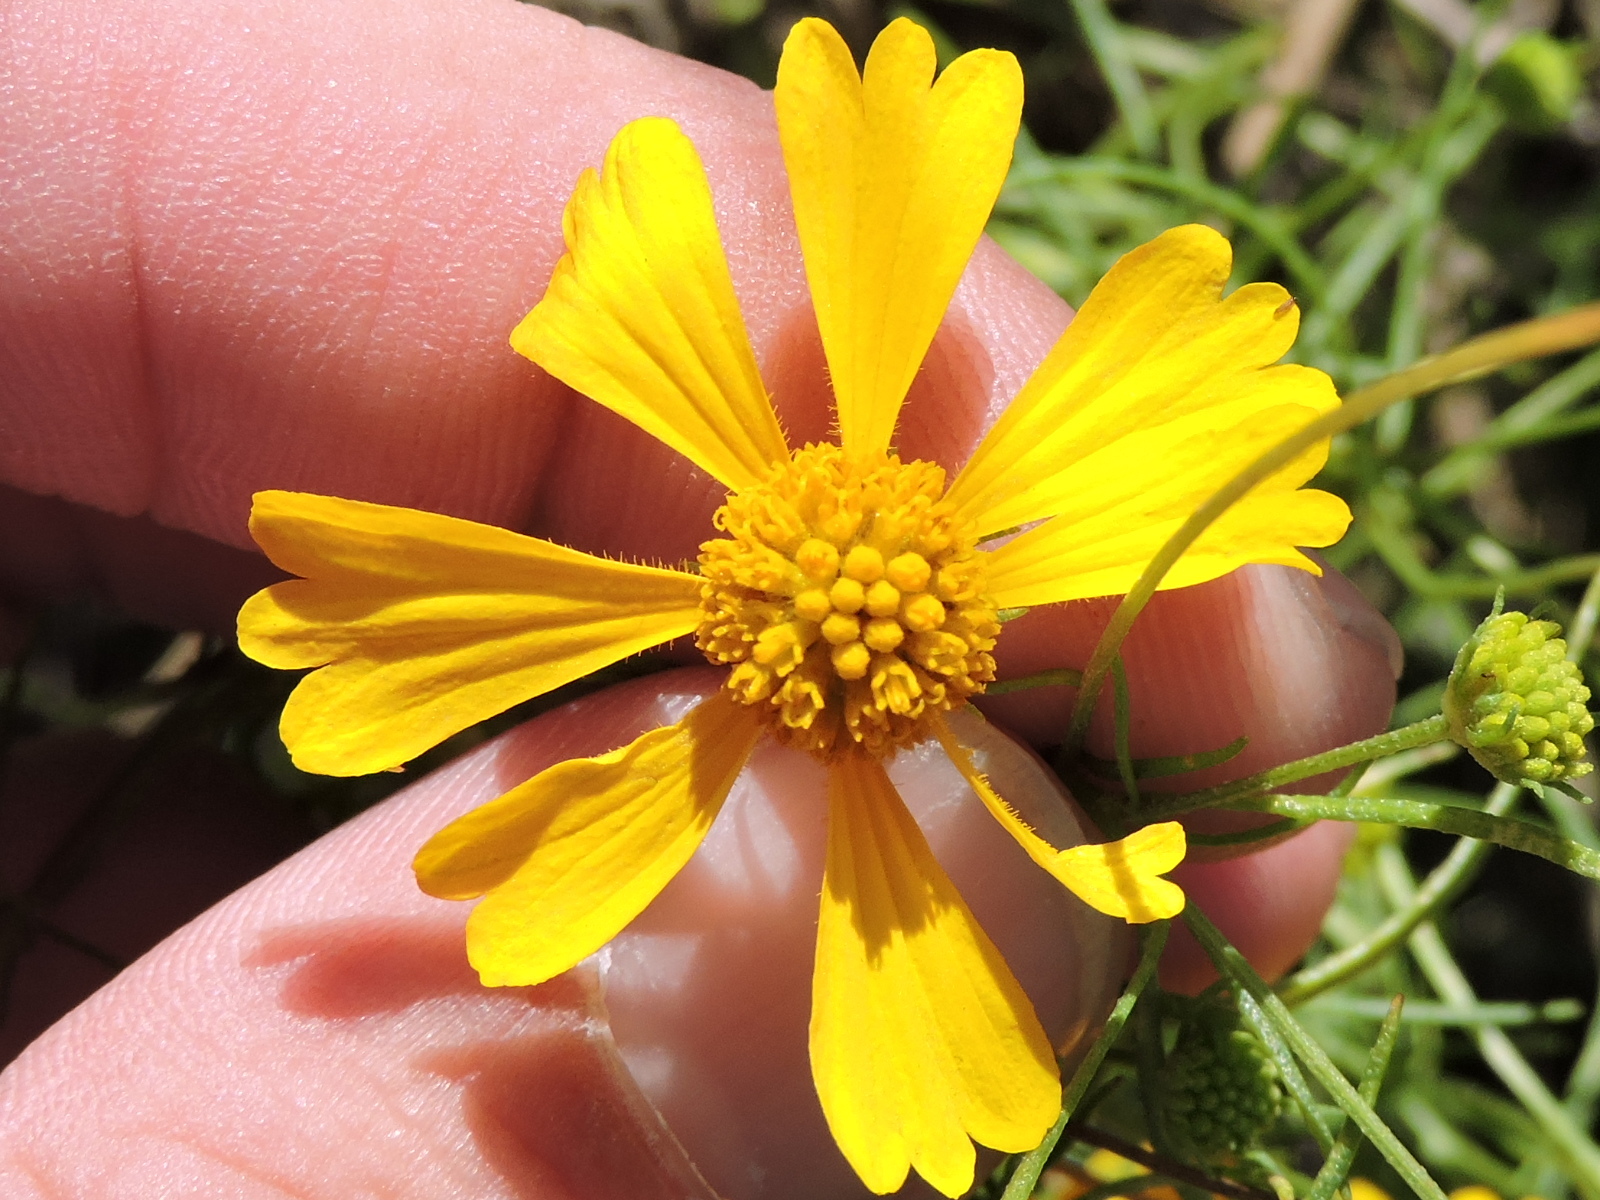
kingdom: Plantae
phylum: Tracheophyta
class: Magnoliopsida
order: Asterales
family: Asteraceae
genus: Helenium
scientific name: Helenium amarum
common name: Bitter sneezeweed
